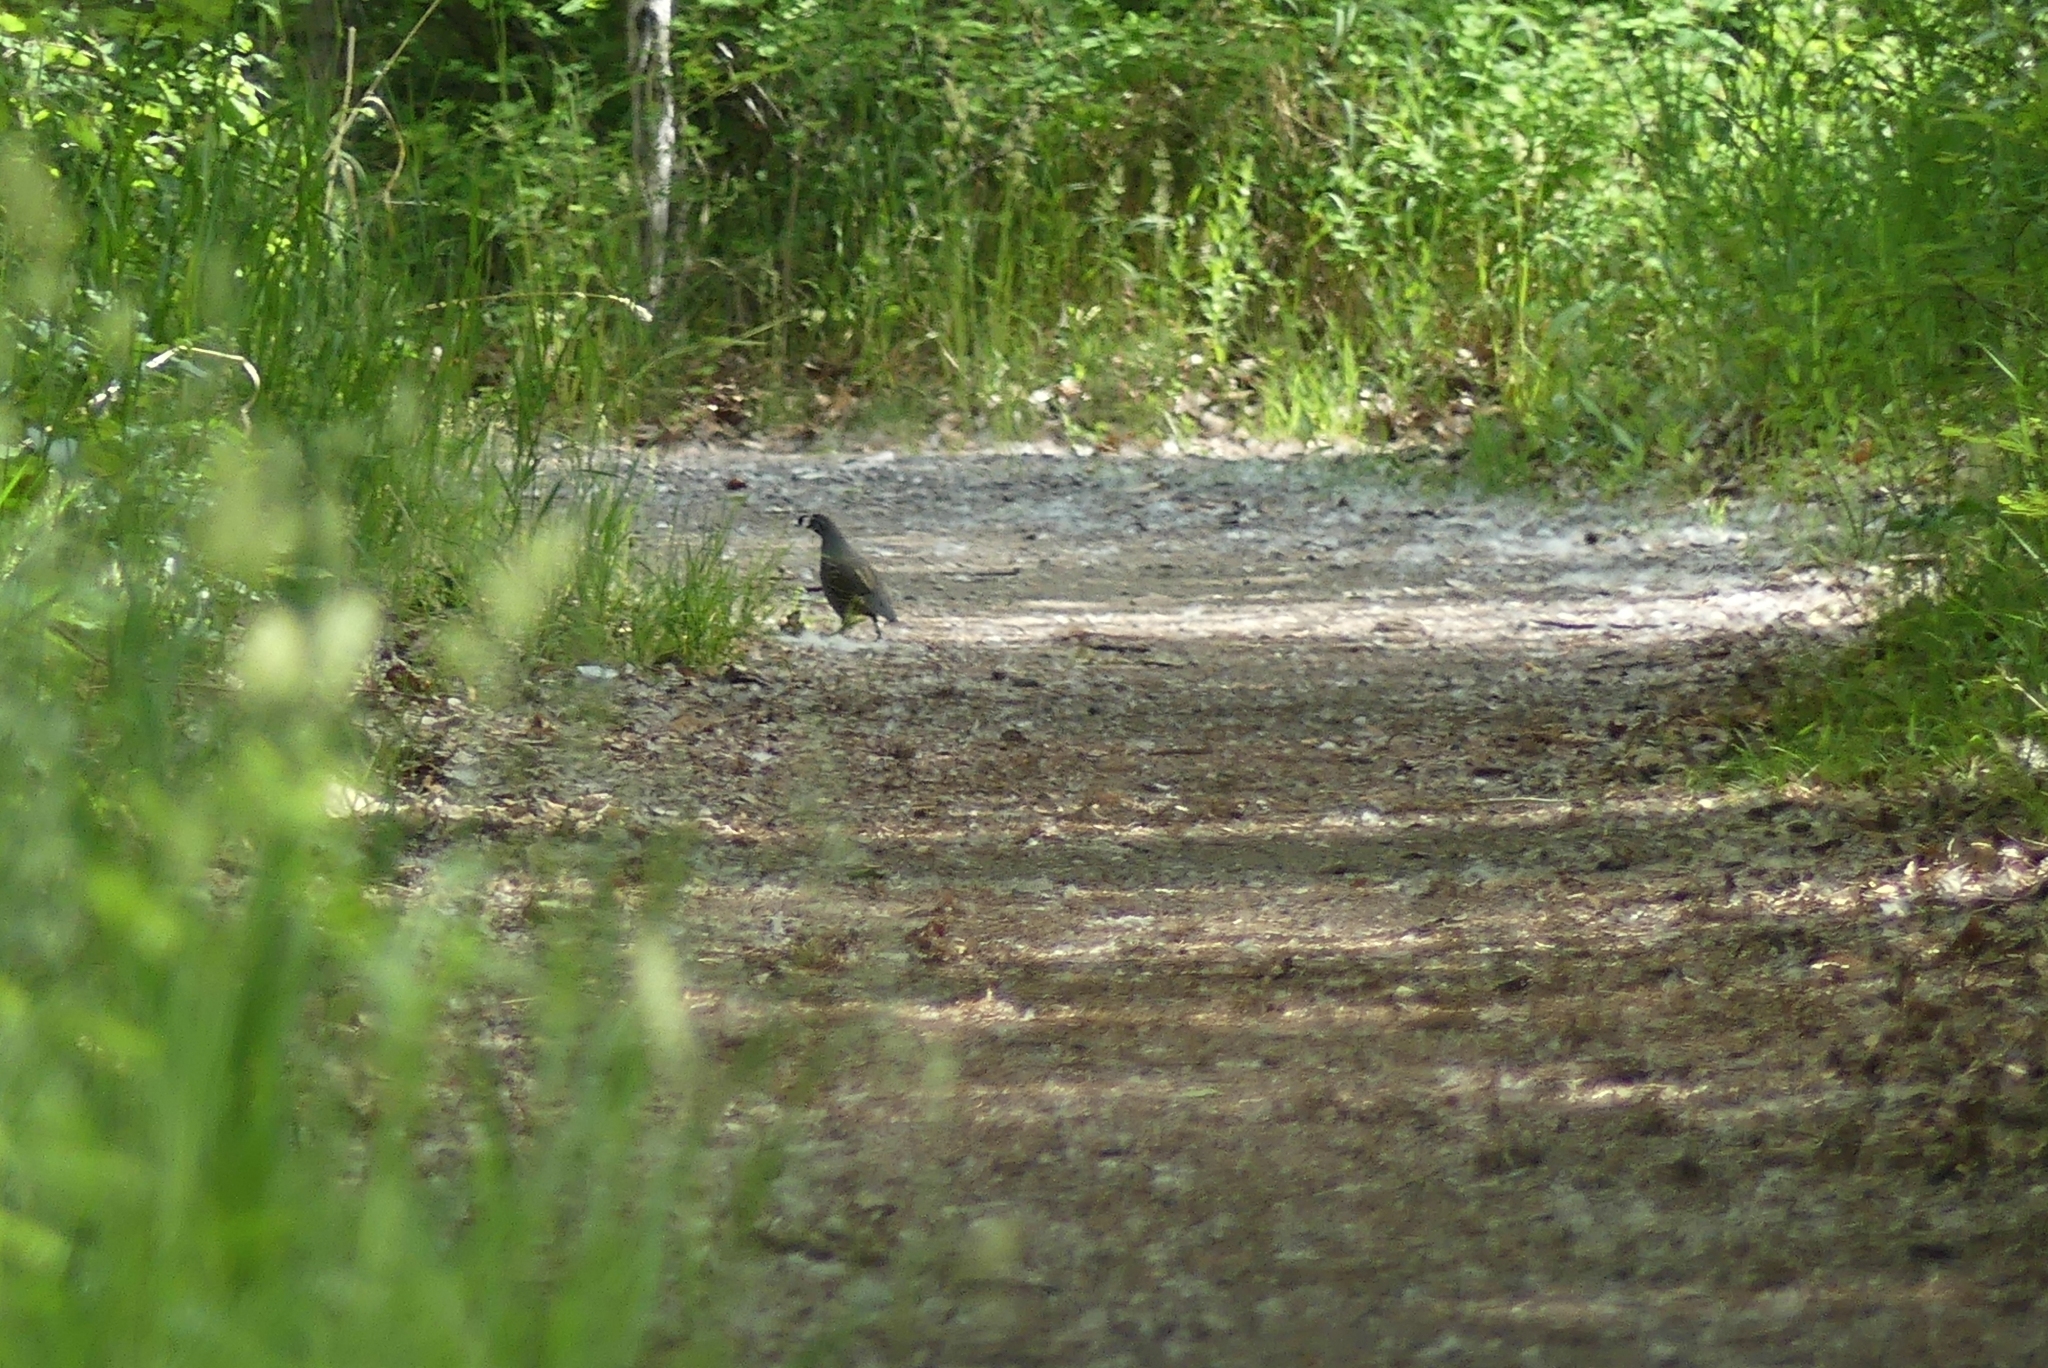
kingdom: Animalia
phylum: Chordata
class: Aves
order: Galliformes
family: Odontophoridae
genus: Callipepla
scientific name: Callipepla californica
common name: California quail
